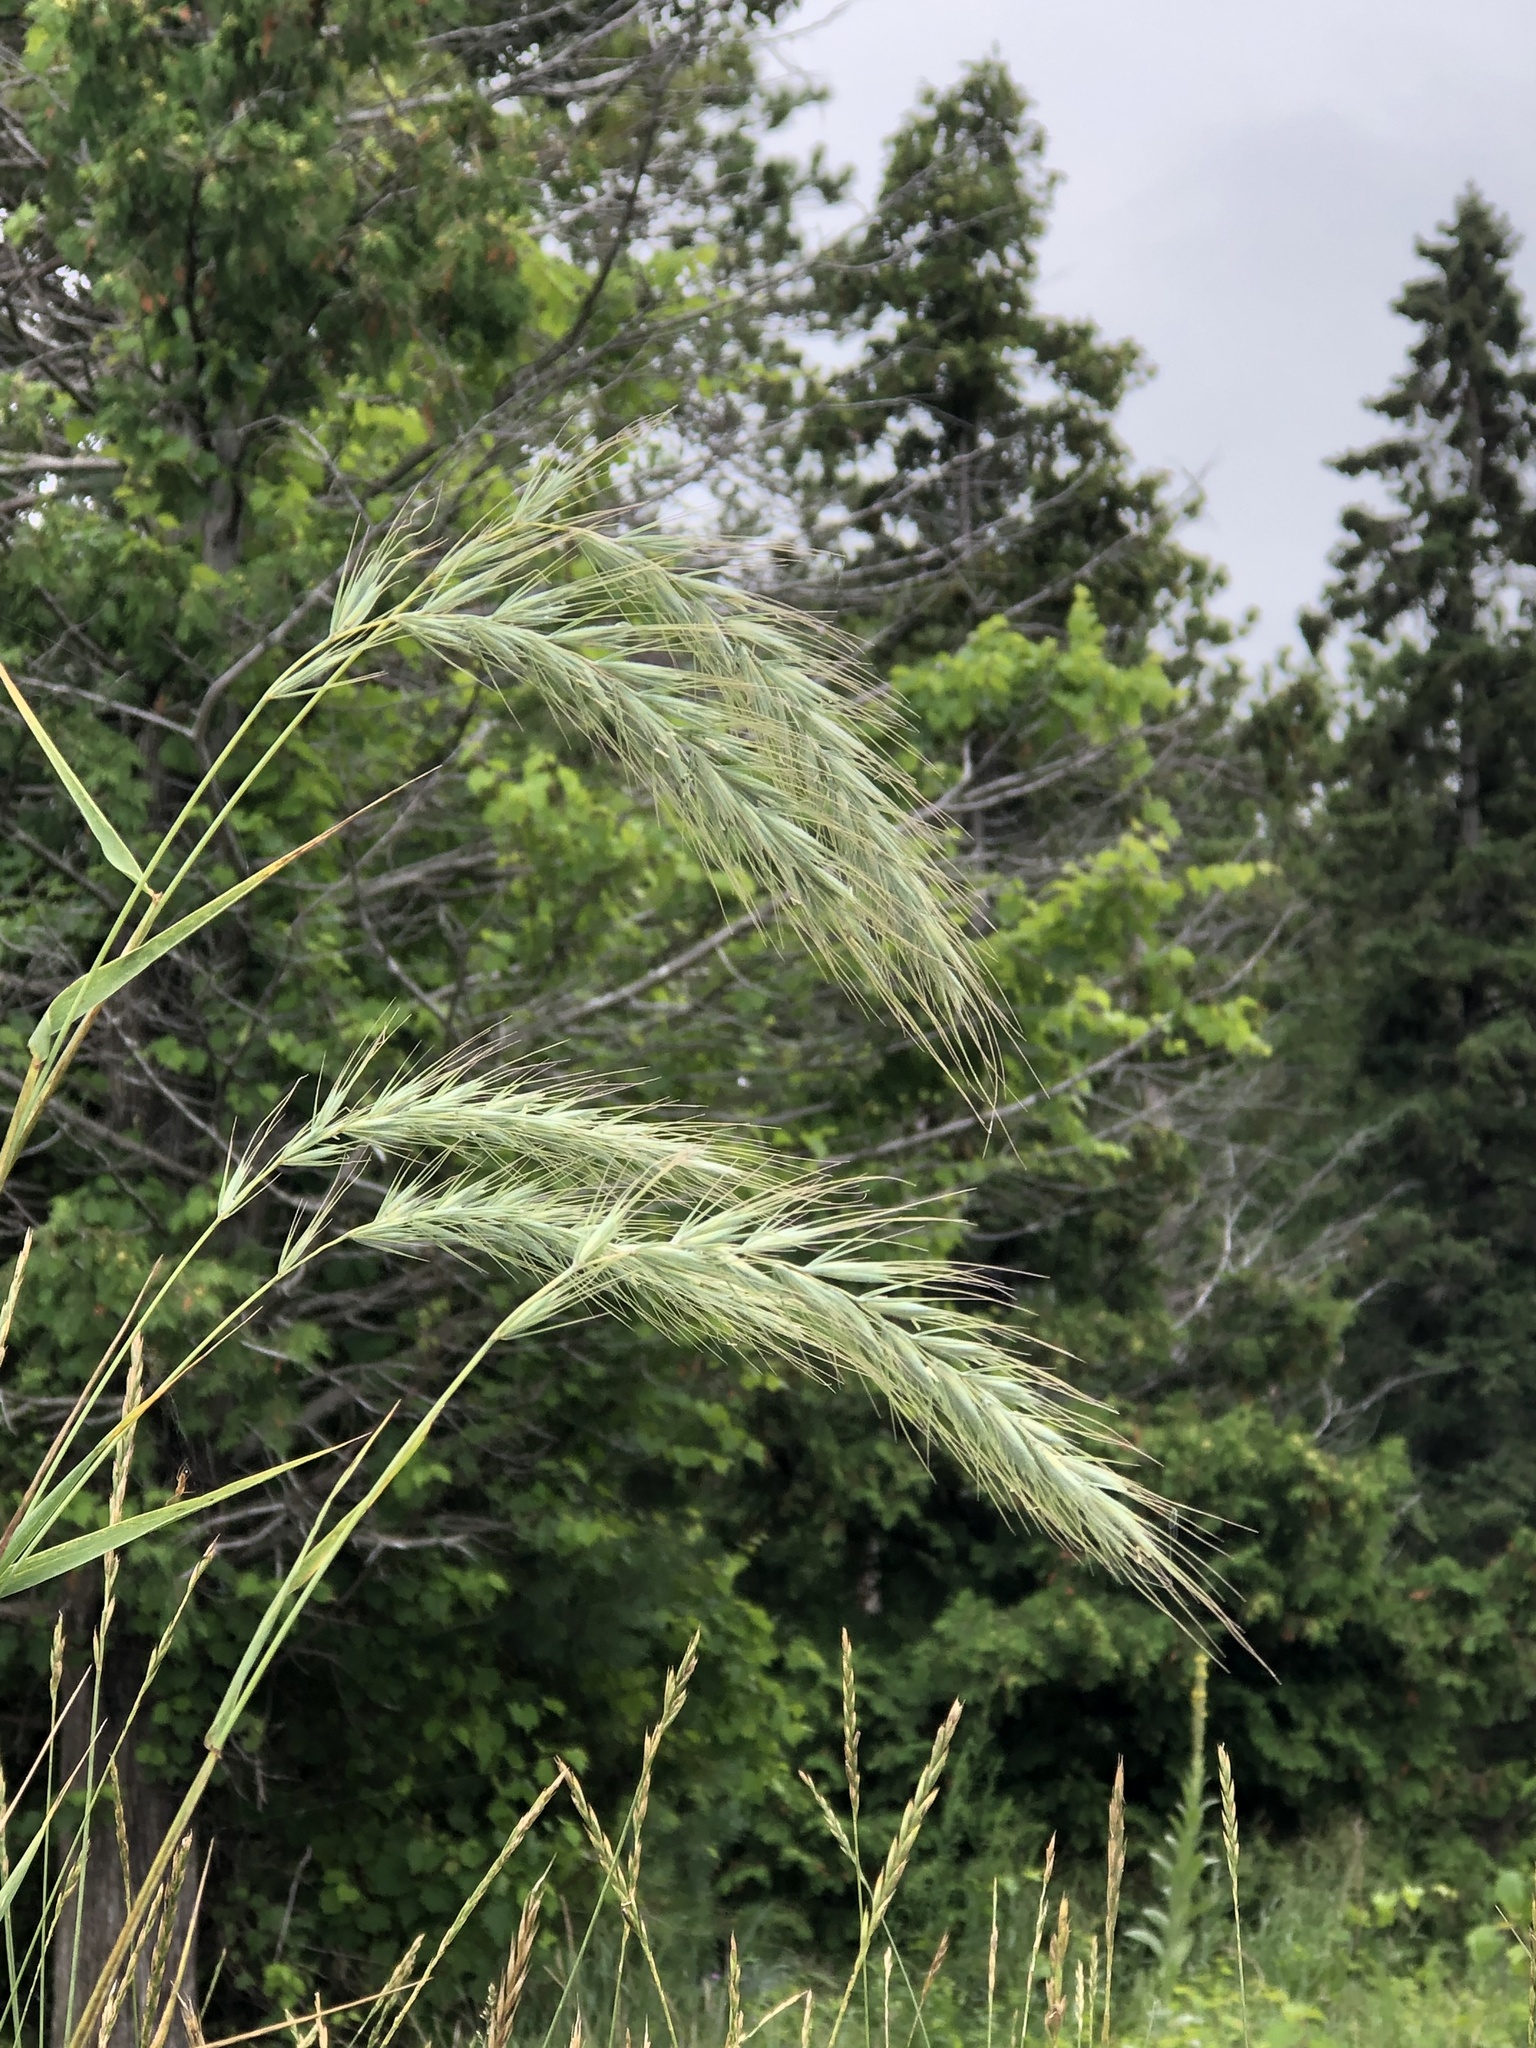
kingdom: Plantae
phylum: Tracheophyta
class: Liliopsida
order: Poales
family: Poaceae
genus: Elymus
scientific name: Elymus canadensis
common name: Canada wild rye
